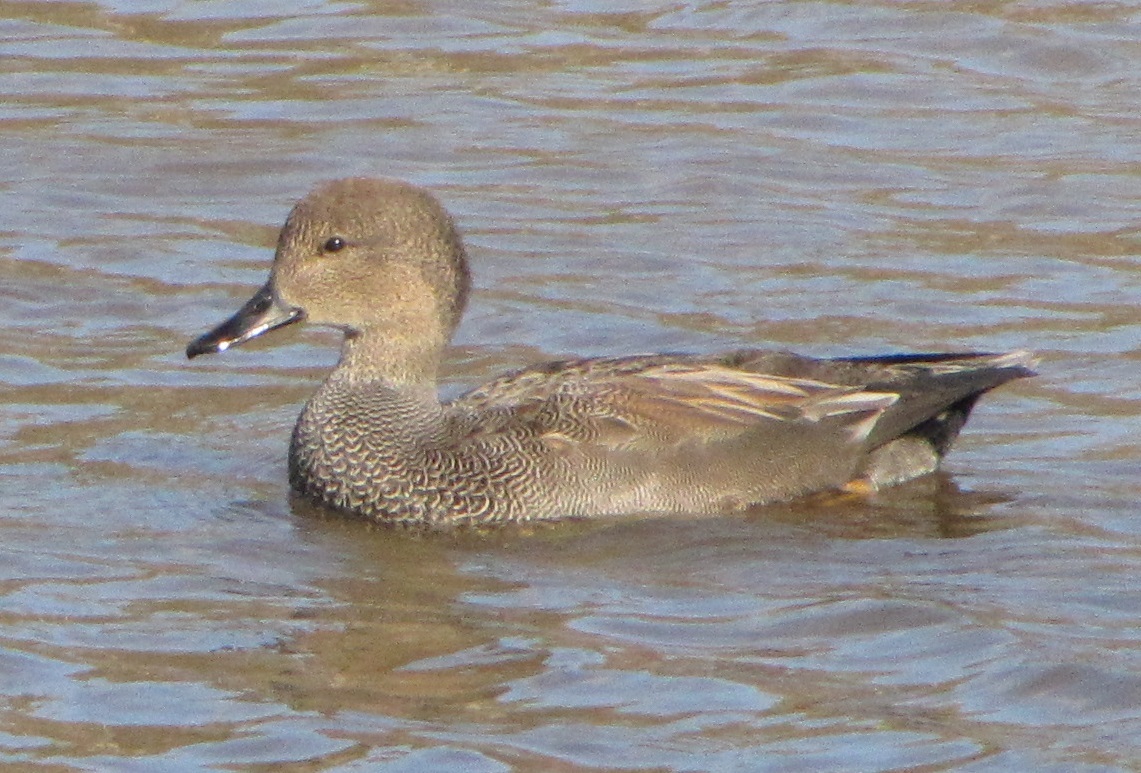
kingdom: Animalia
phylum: Chordata
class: Aves
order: Anseriformes
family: Anatidae
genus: Mareca
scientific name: Mareca strepera
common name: Gadwall
